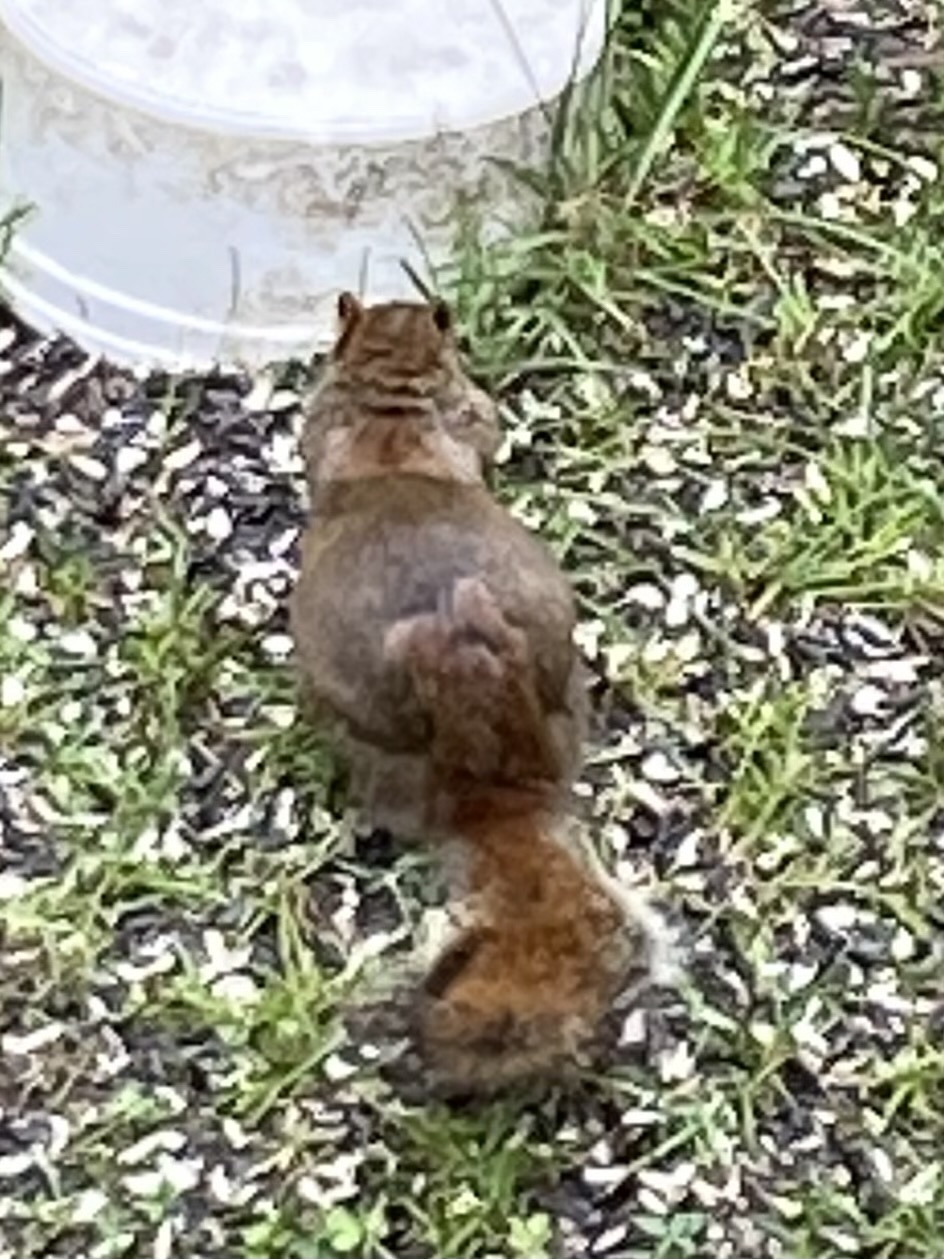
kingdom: Animalia
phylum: Chordata
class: Mammalia
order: Rodentia
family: Sciuridae
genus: Tamiasciurus
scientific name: Tamiasciurus hudsonicus
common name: Red squirrel
